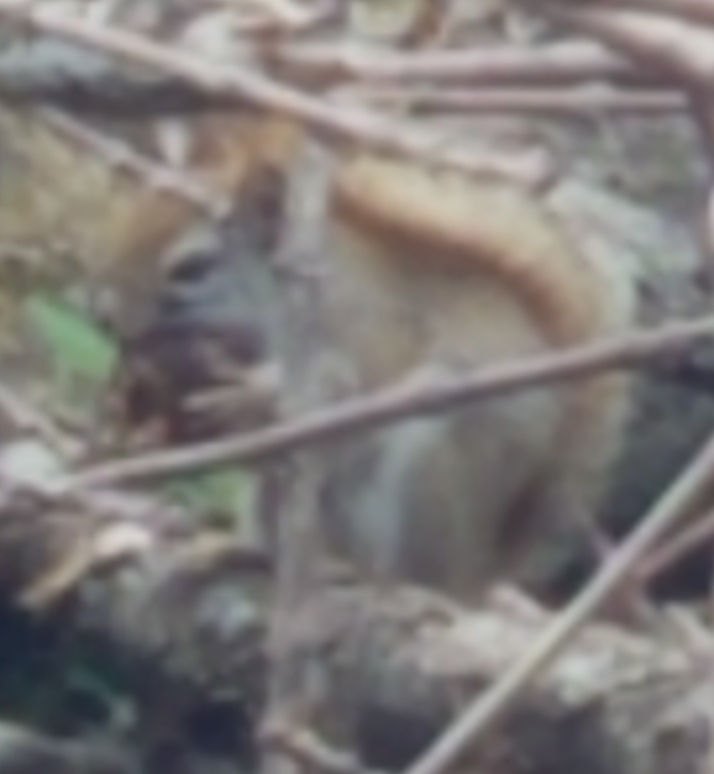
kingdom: Animalia
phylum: Chordata
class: Mammalia
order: Rodentia
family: Sciuridae
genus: Tamiasciurus
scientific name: Tamiasciurus hudsonicus
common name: Red squirrel
